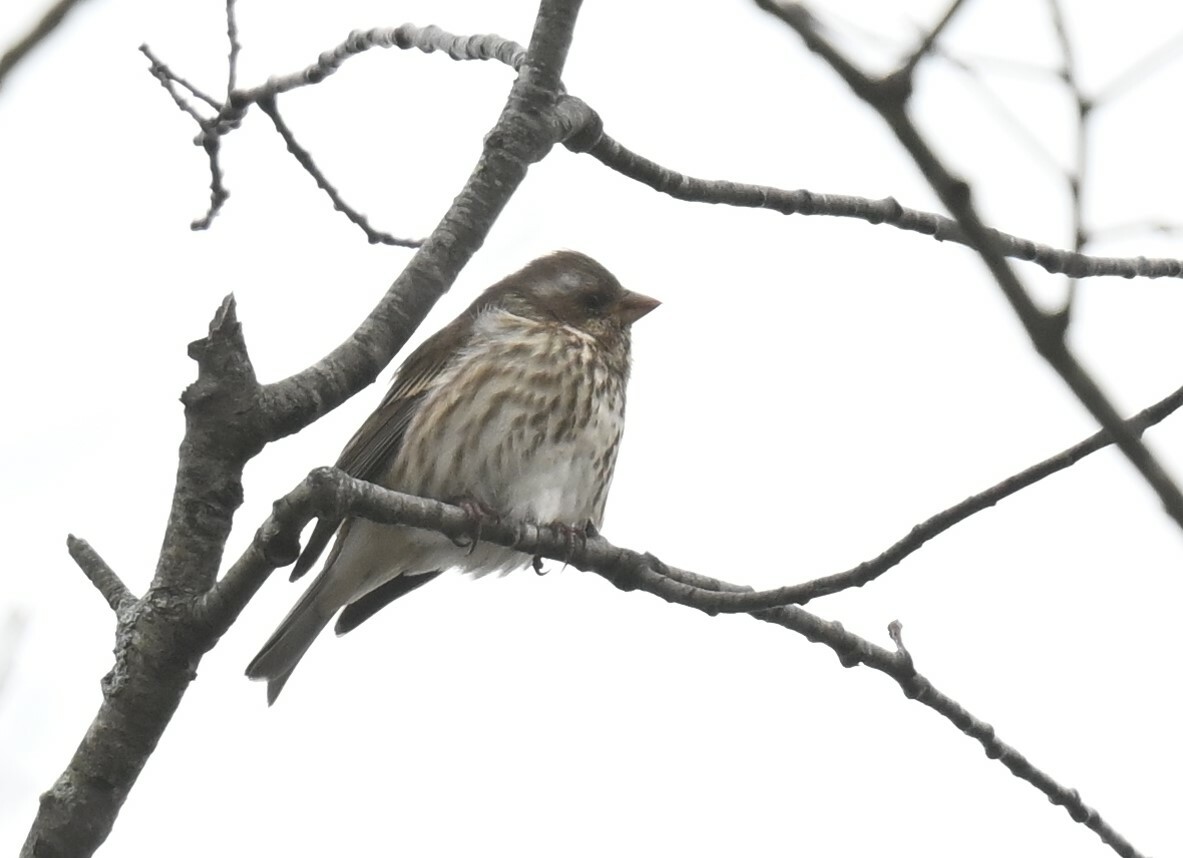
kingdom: Animalia
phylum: Chordata
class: Aves
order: Passeriformes
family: Fringillidae
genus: Haemorhous
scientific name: Haemorhous purpureus
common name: Purple finch
